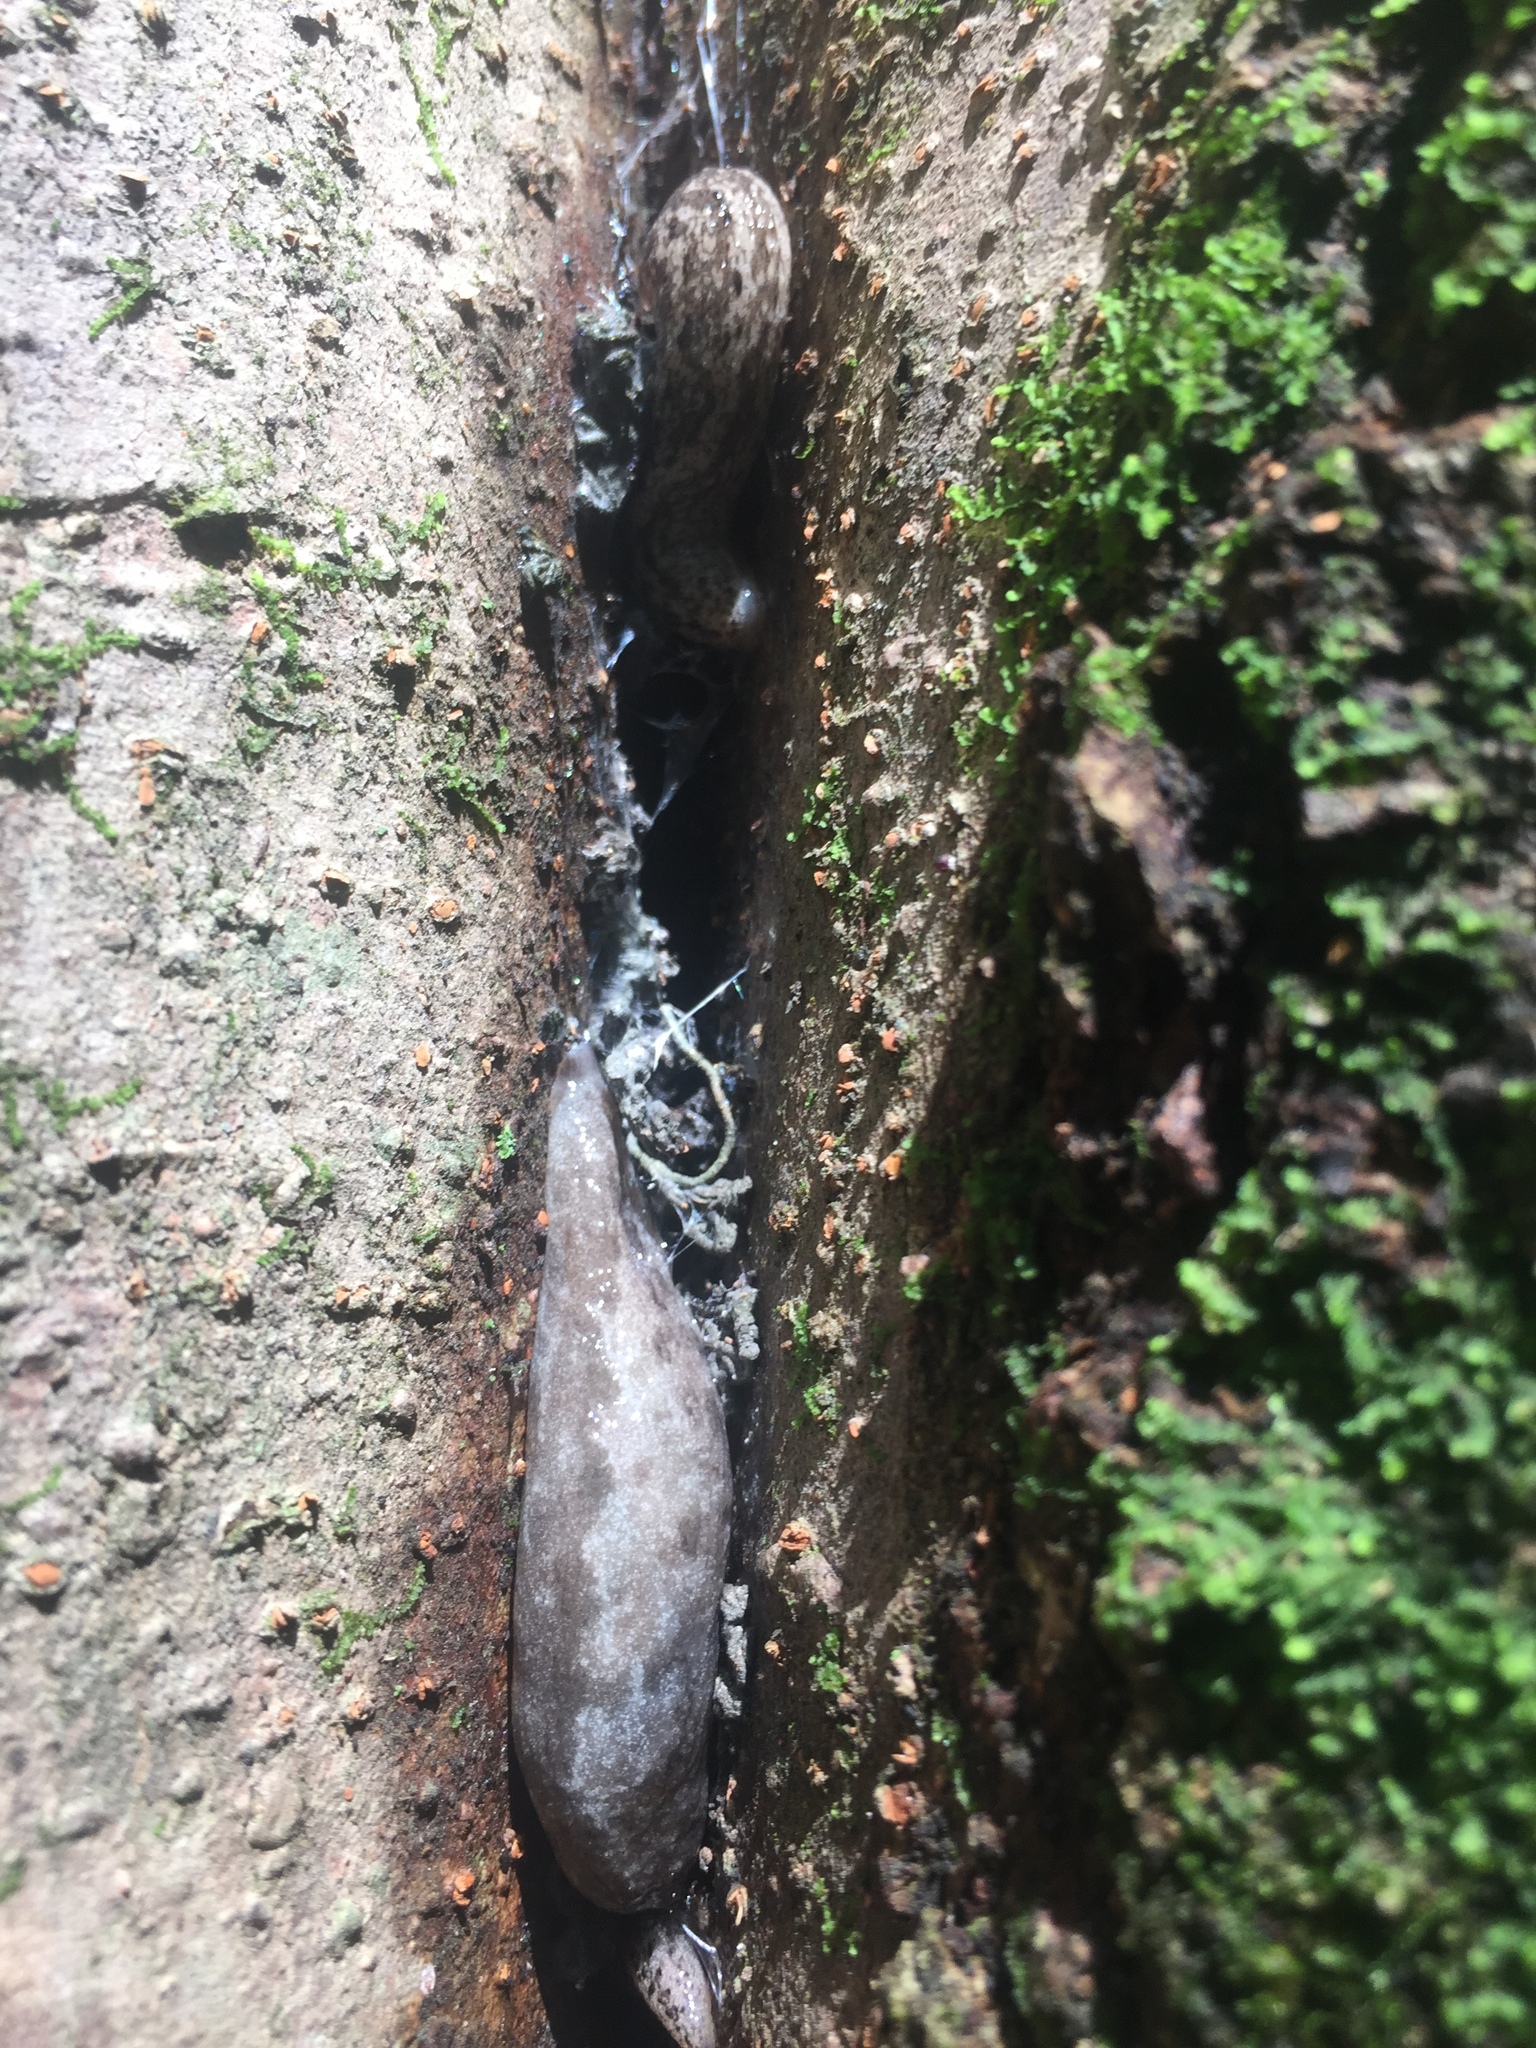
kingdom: Animalia
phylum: Mollusca
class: Gastropoda
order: Stylommatophora
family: Philomycidae
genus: Megapallifera
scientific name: Megapallifera mutabilis
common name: Changeable mantleslug
